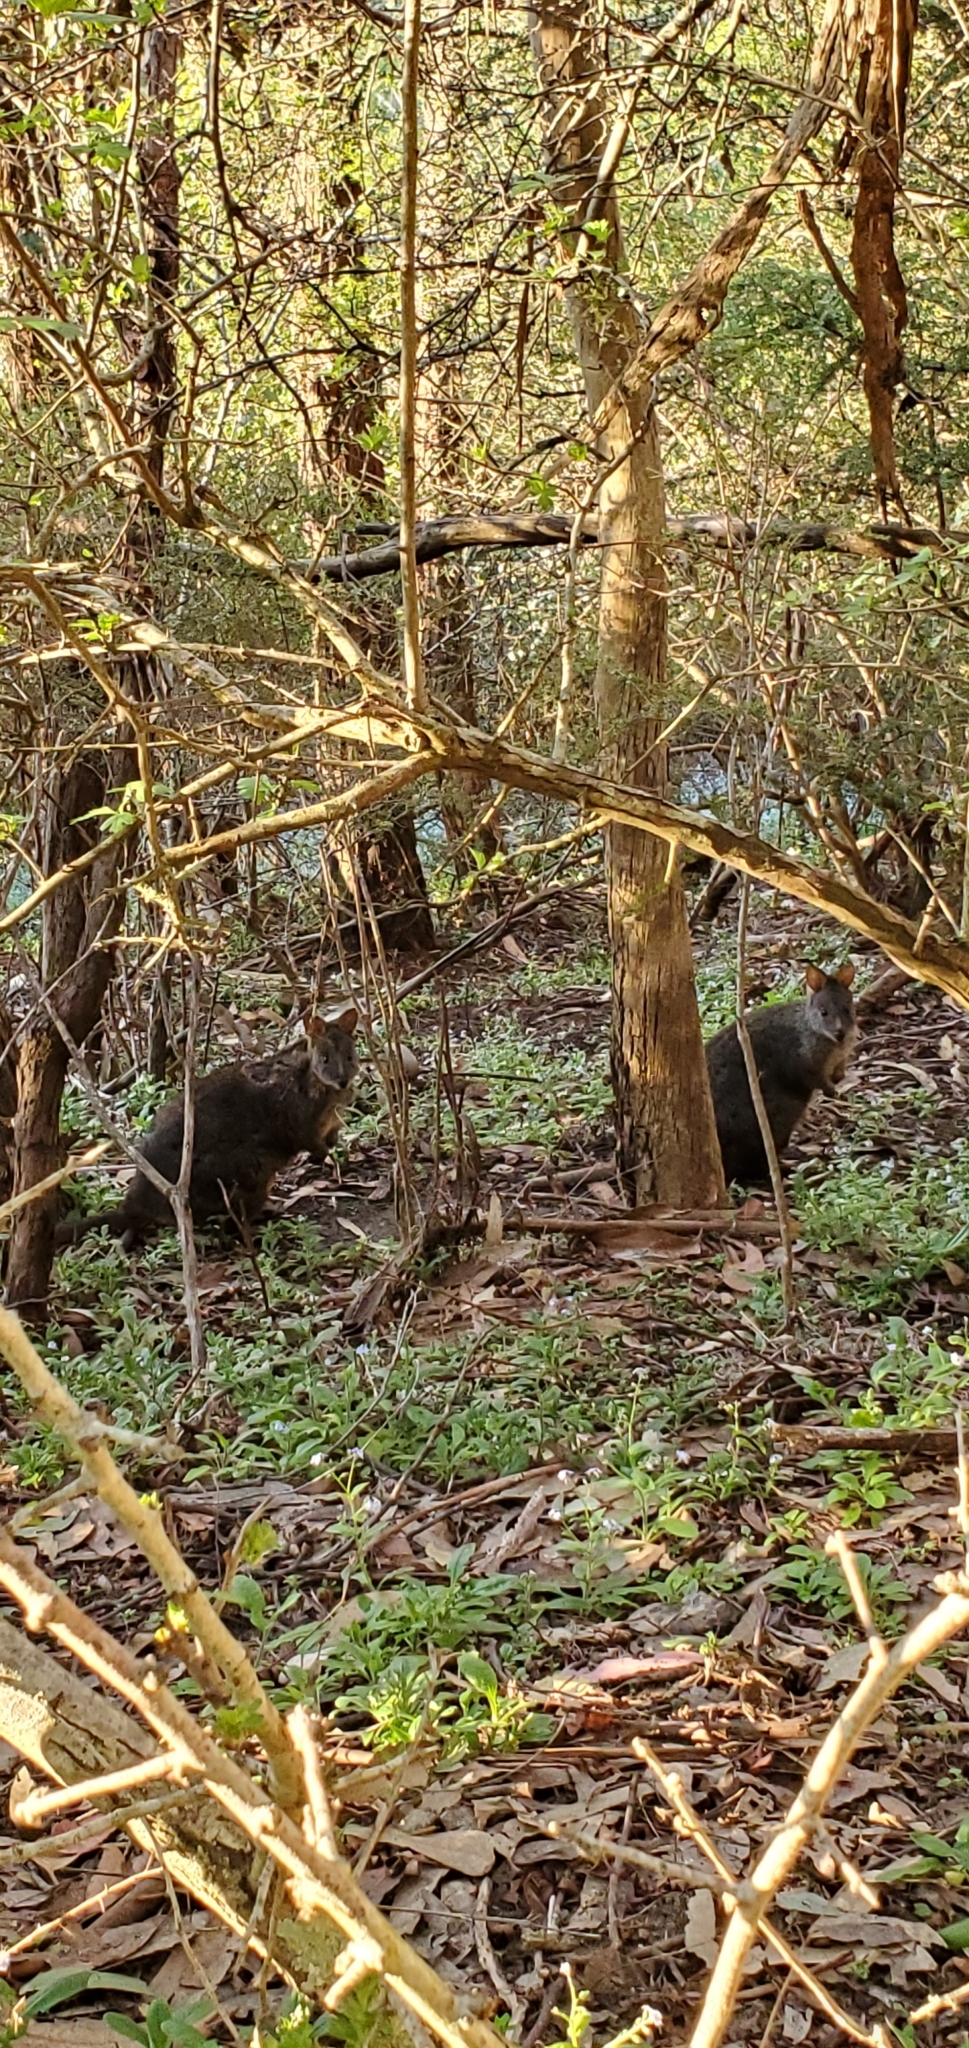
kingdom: Animalia
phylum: Chordata
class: Mammalia
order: Diprotodontia
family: Macropodidae
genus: Thylogale
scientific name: Thylogale billardierii
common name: Tasmanian pademelon
